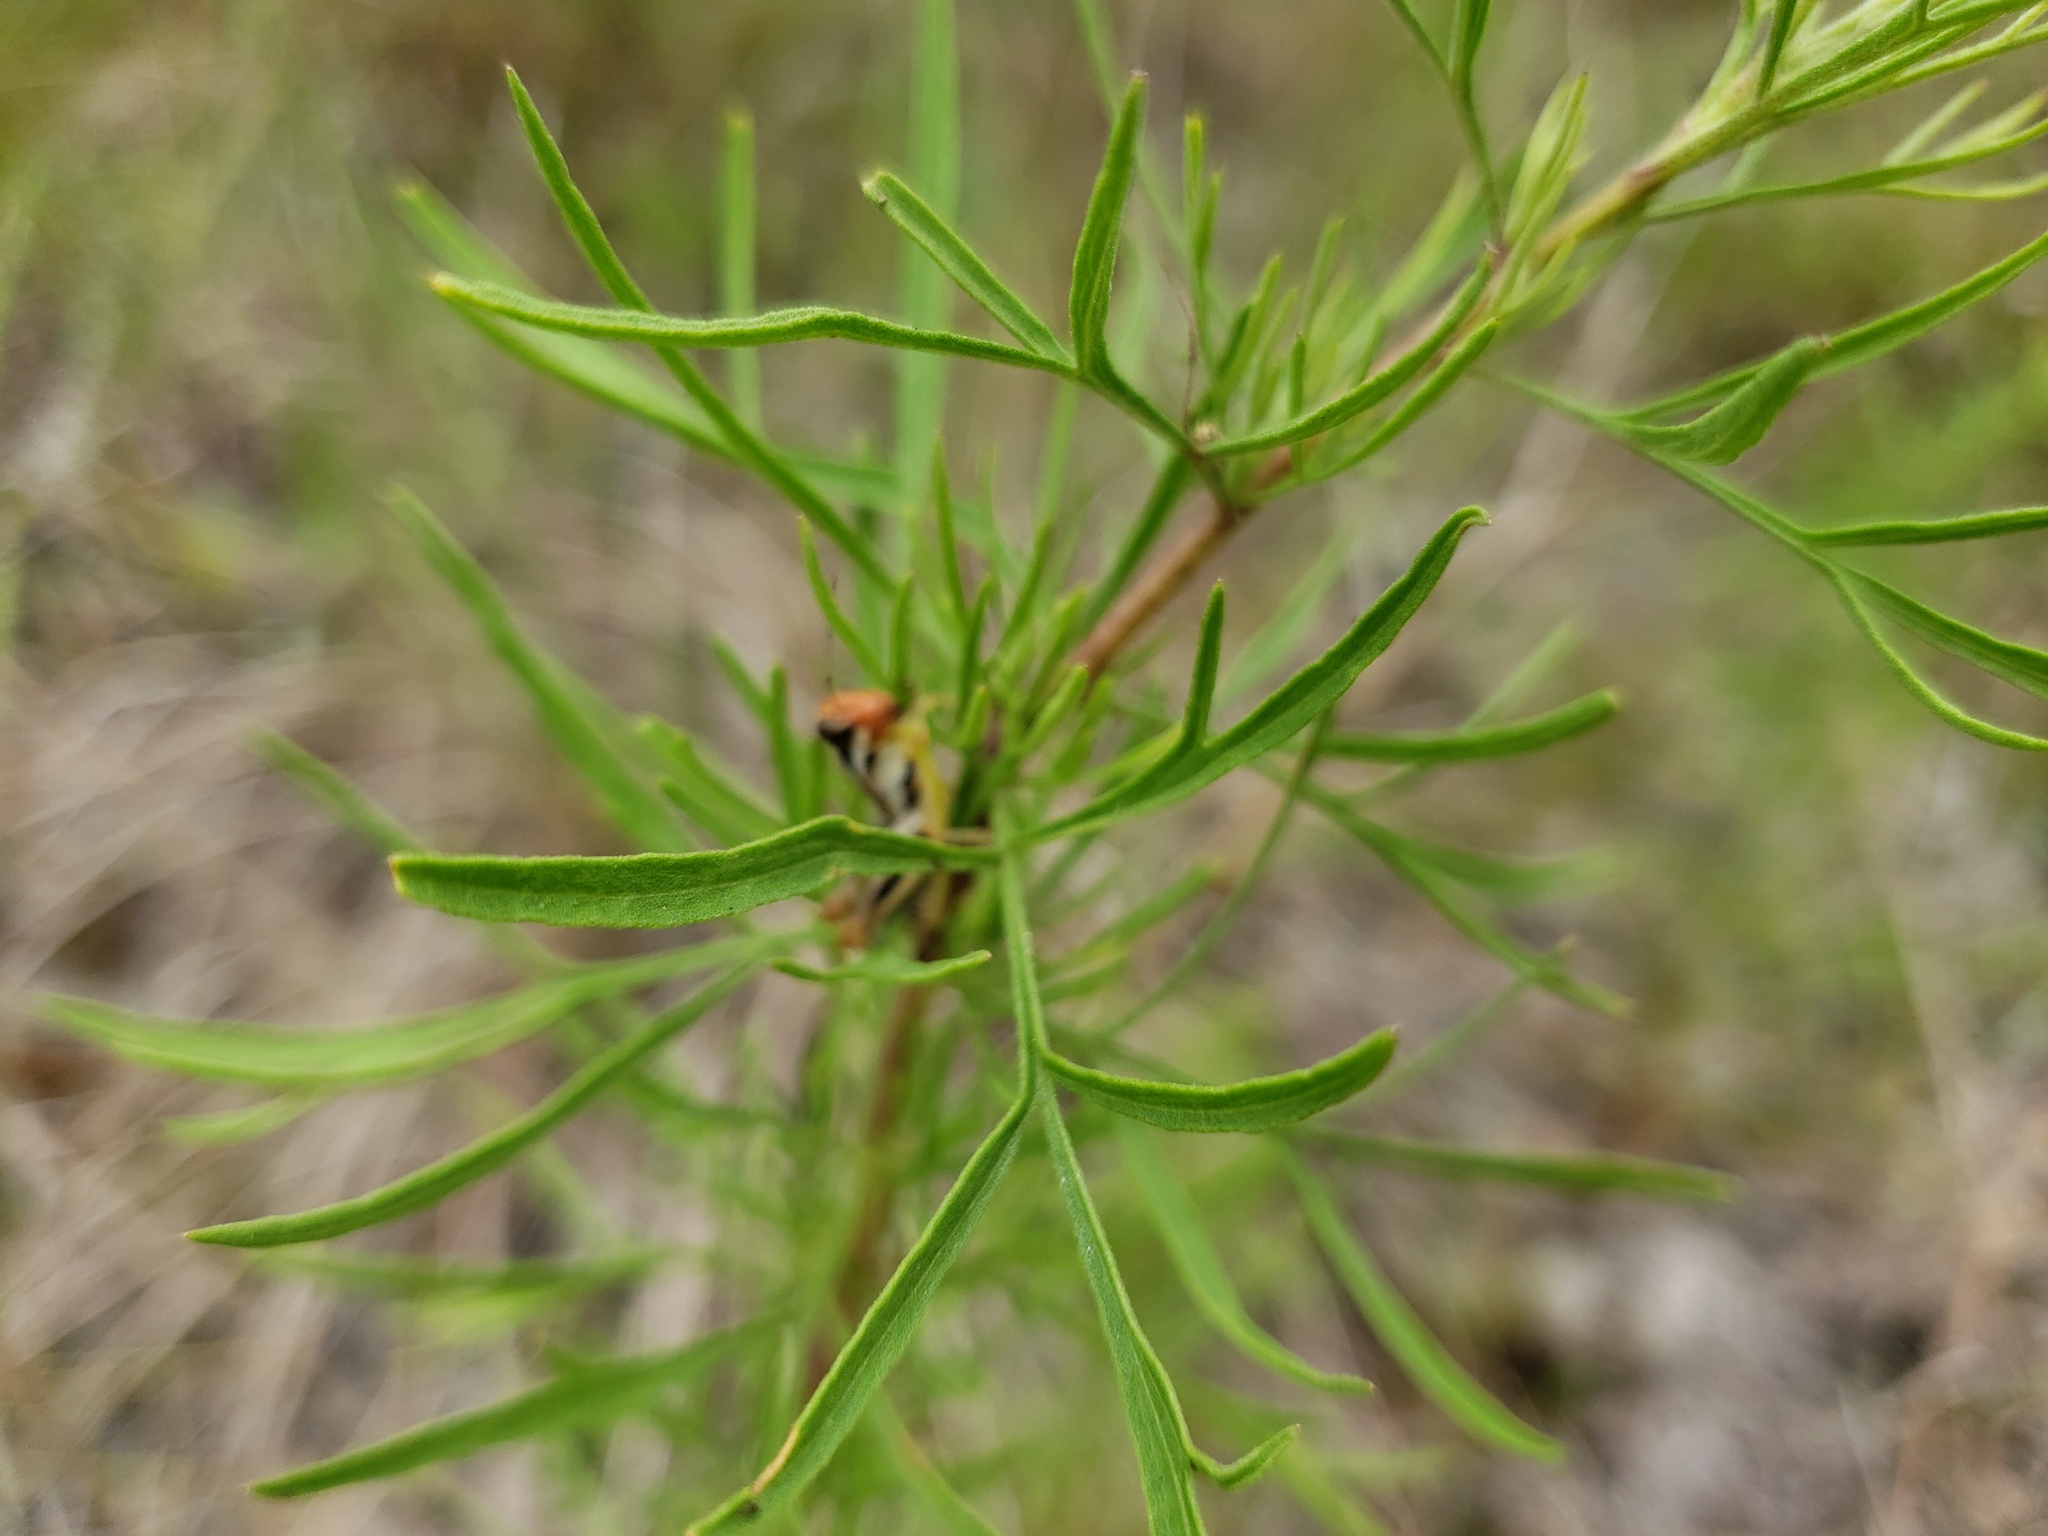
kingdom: Plantae
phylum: Tracheophyta
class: Magnoliopsida
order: Asterales
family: Asteraceae
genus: Eupatorium
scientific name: Eupatorium compositifolium
